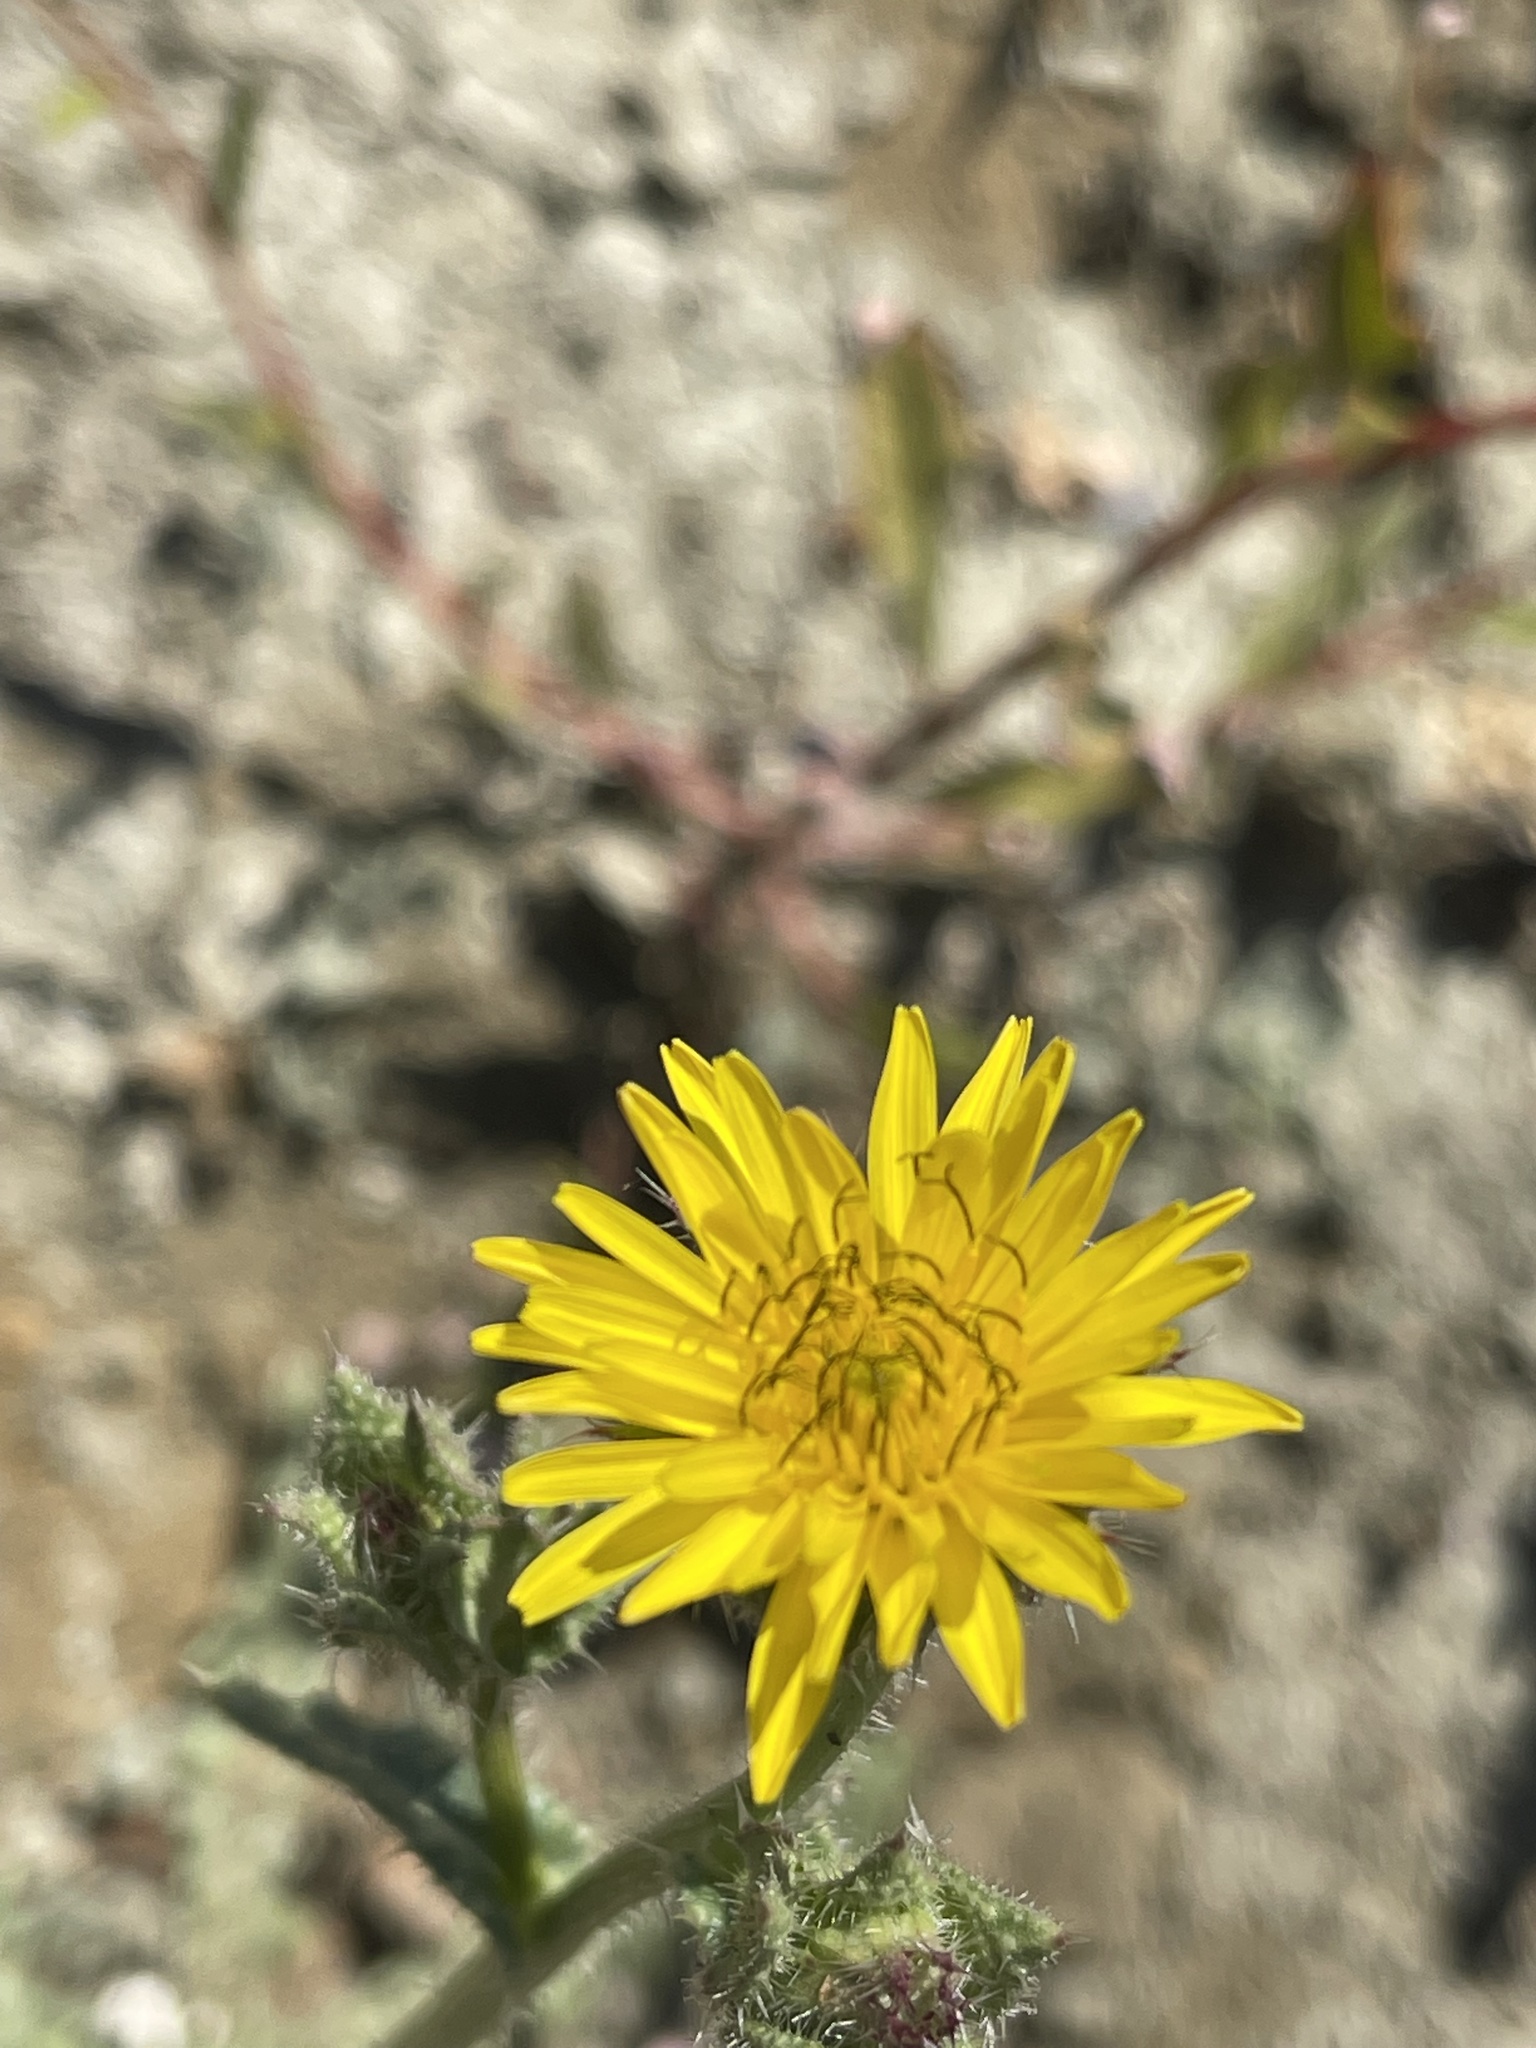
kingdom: Plantae
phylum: Tracheophyta
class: Magnoliopsida
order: Asterales
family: Asteraceae
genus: Helminthotheca
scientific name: Helminthotheca echioides
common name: Ox-tongue
